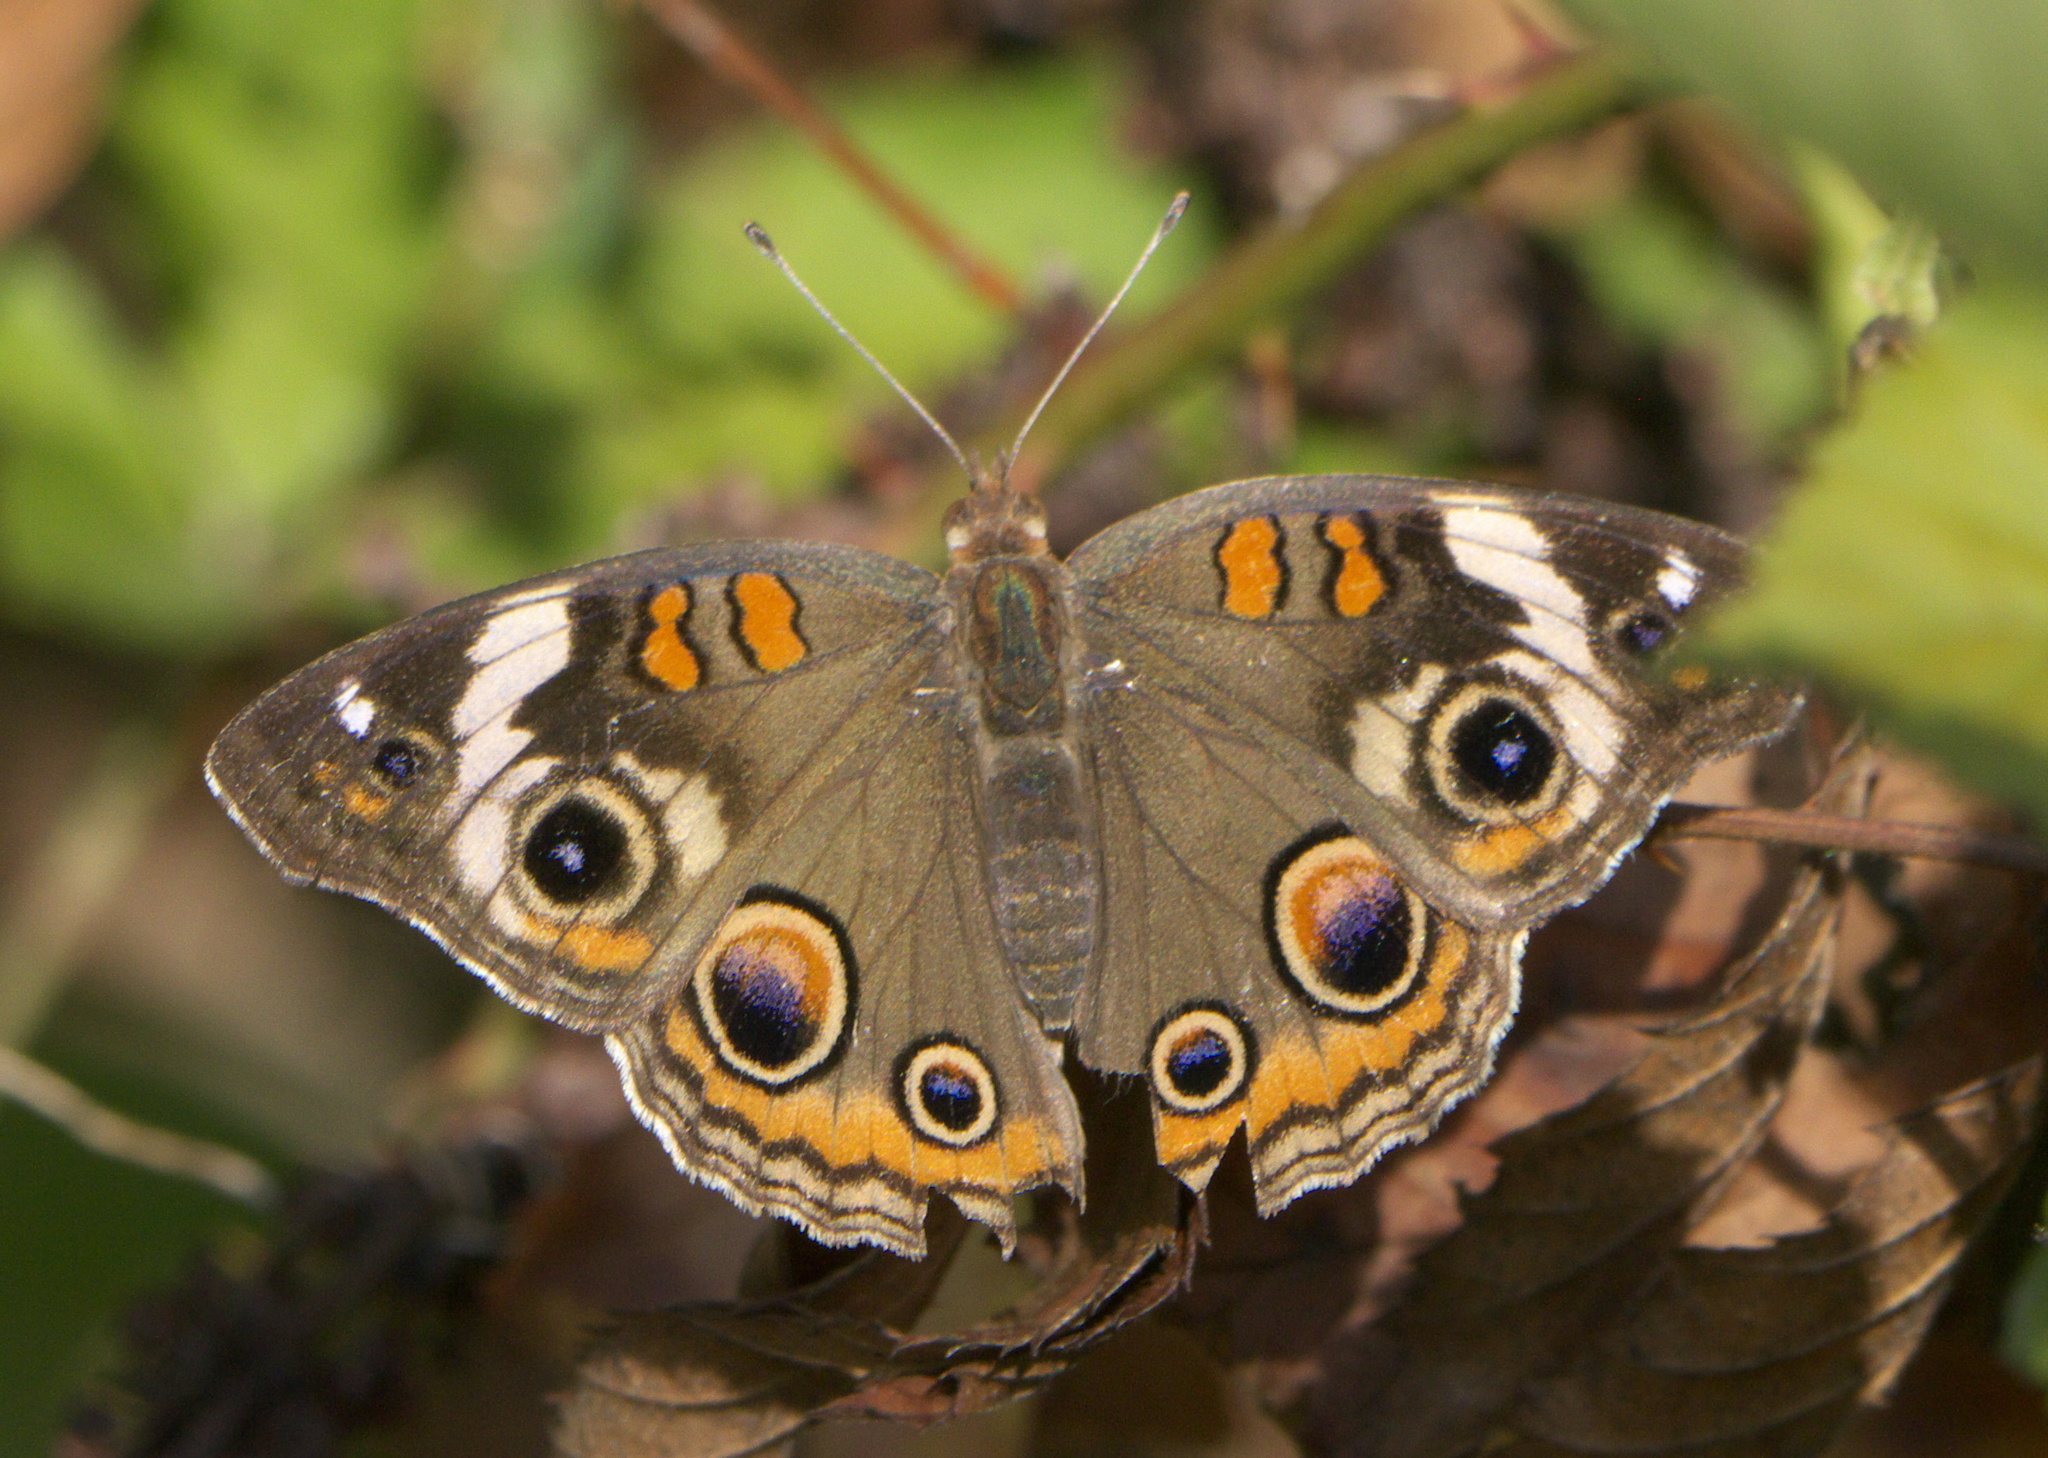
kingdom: Animalia
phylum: Arthropoda
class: Insecta
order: Lepidoptera
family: Nymphalidae
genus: Junonia
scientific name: Junonia coenia
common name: Common buckeye
